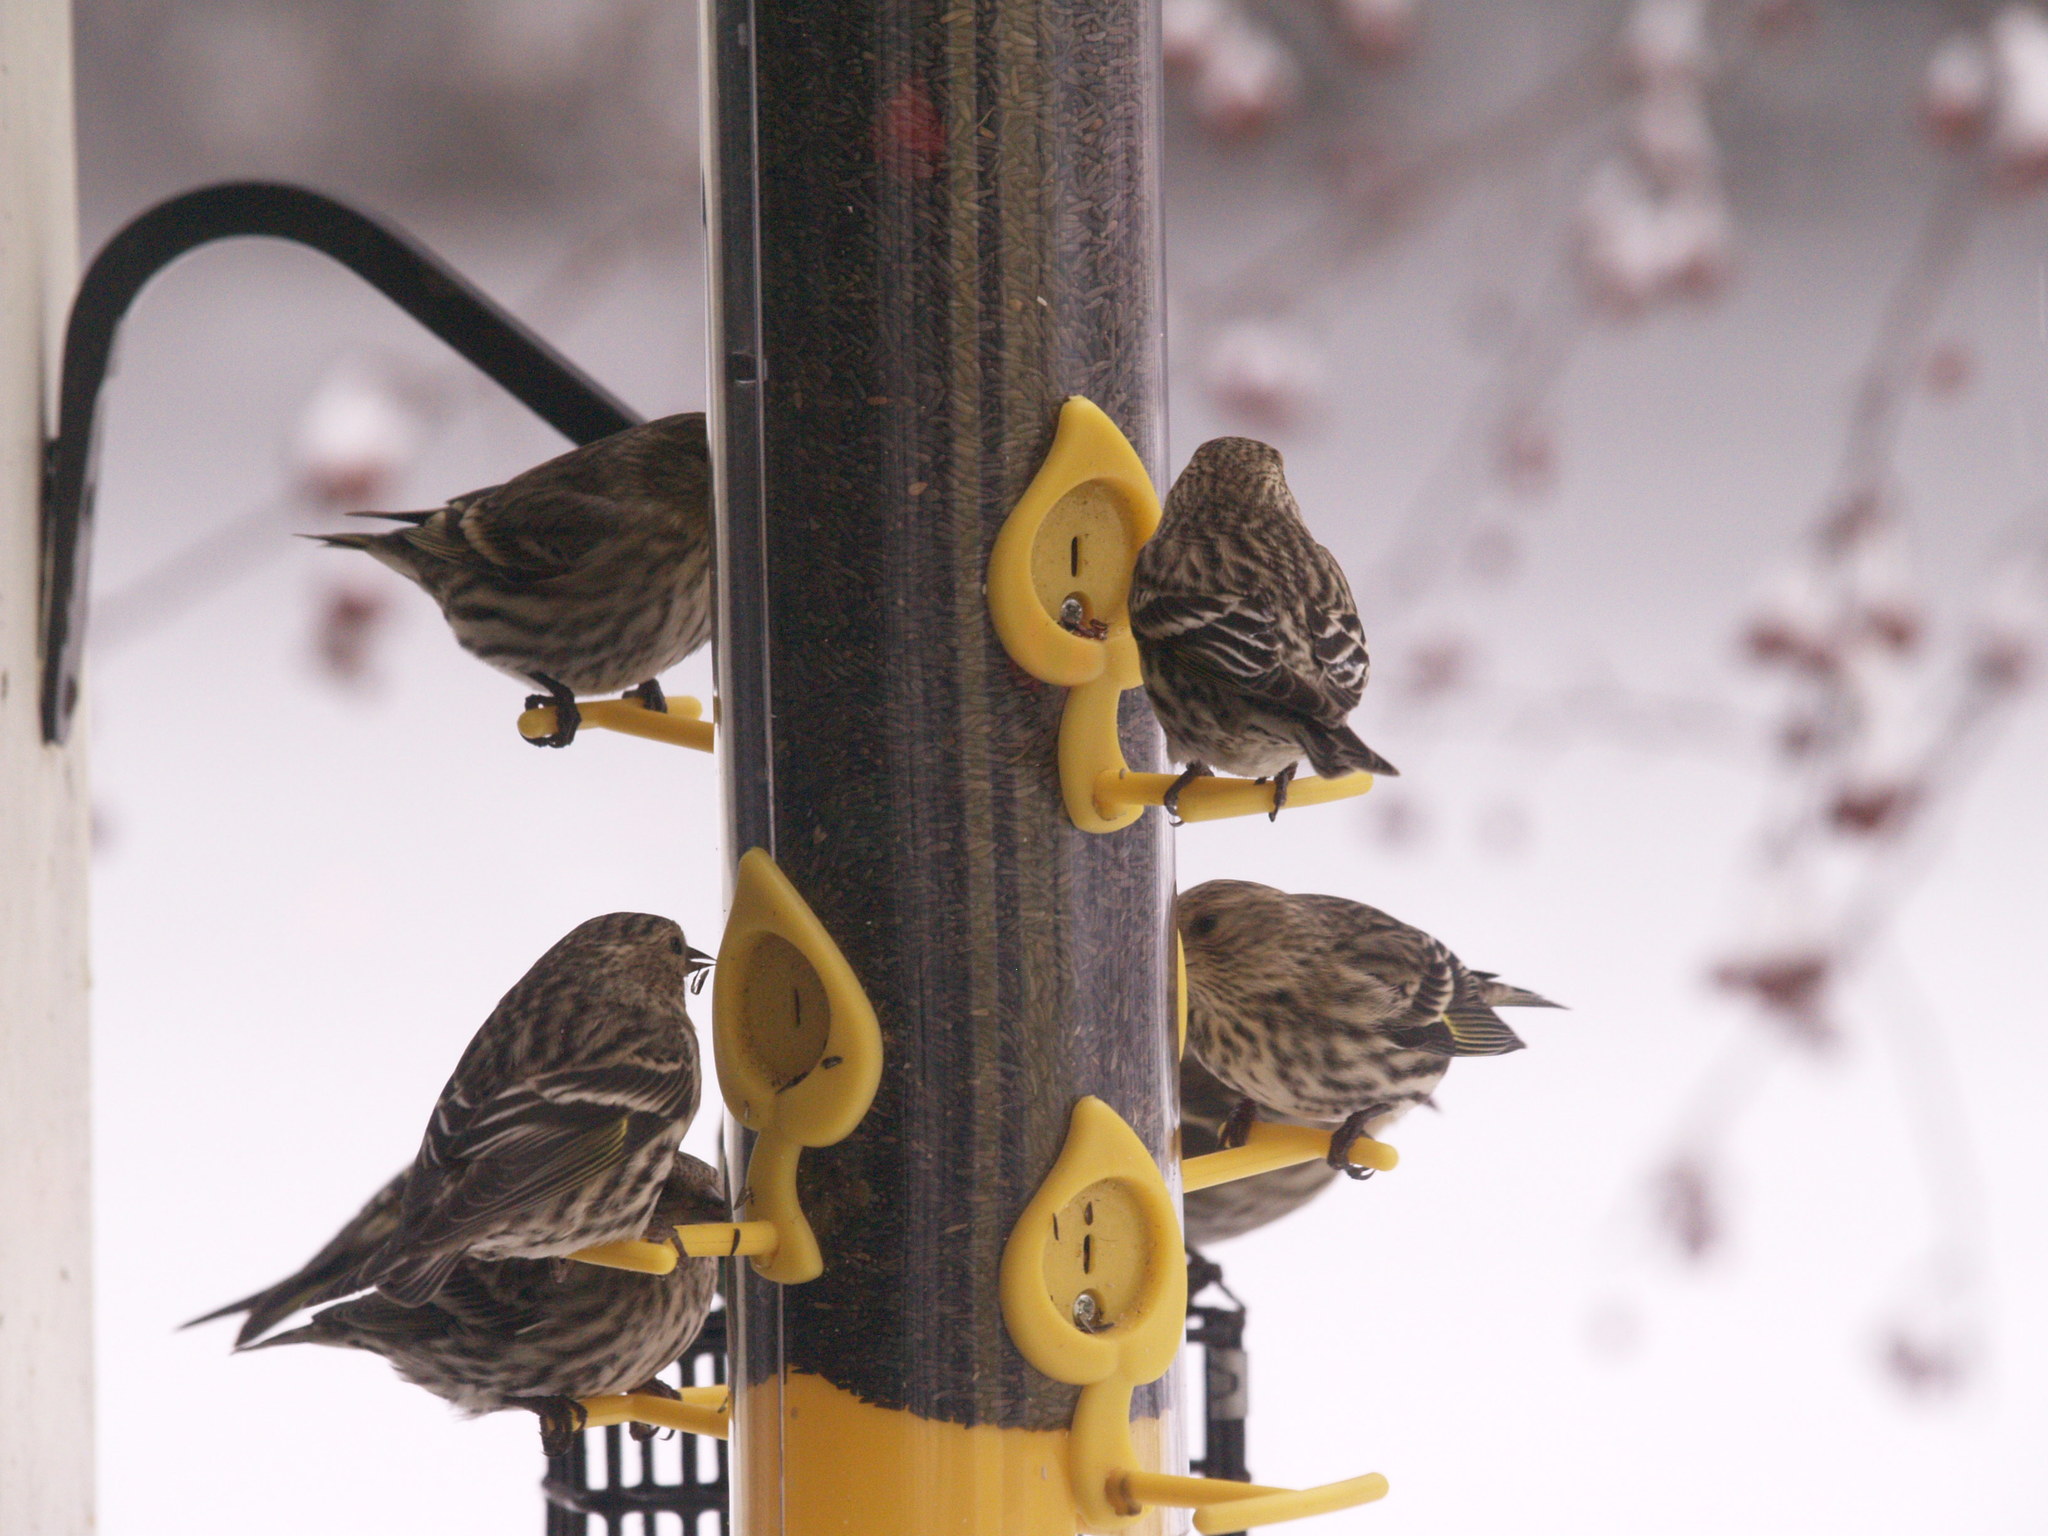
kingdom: Animalia
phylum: Chordata
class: Aves
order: Passeriformes
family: Fringillidae
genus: Spinus
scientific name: Spinus pinus
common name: Pine siskin
